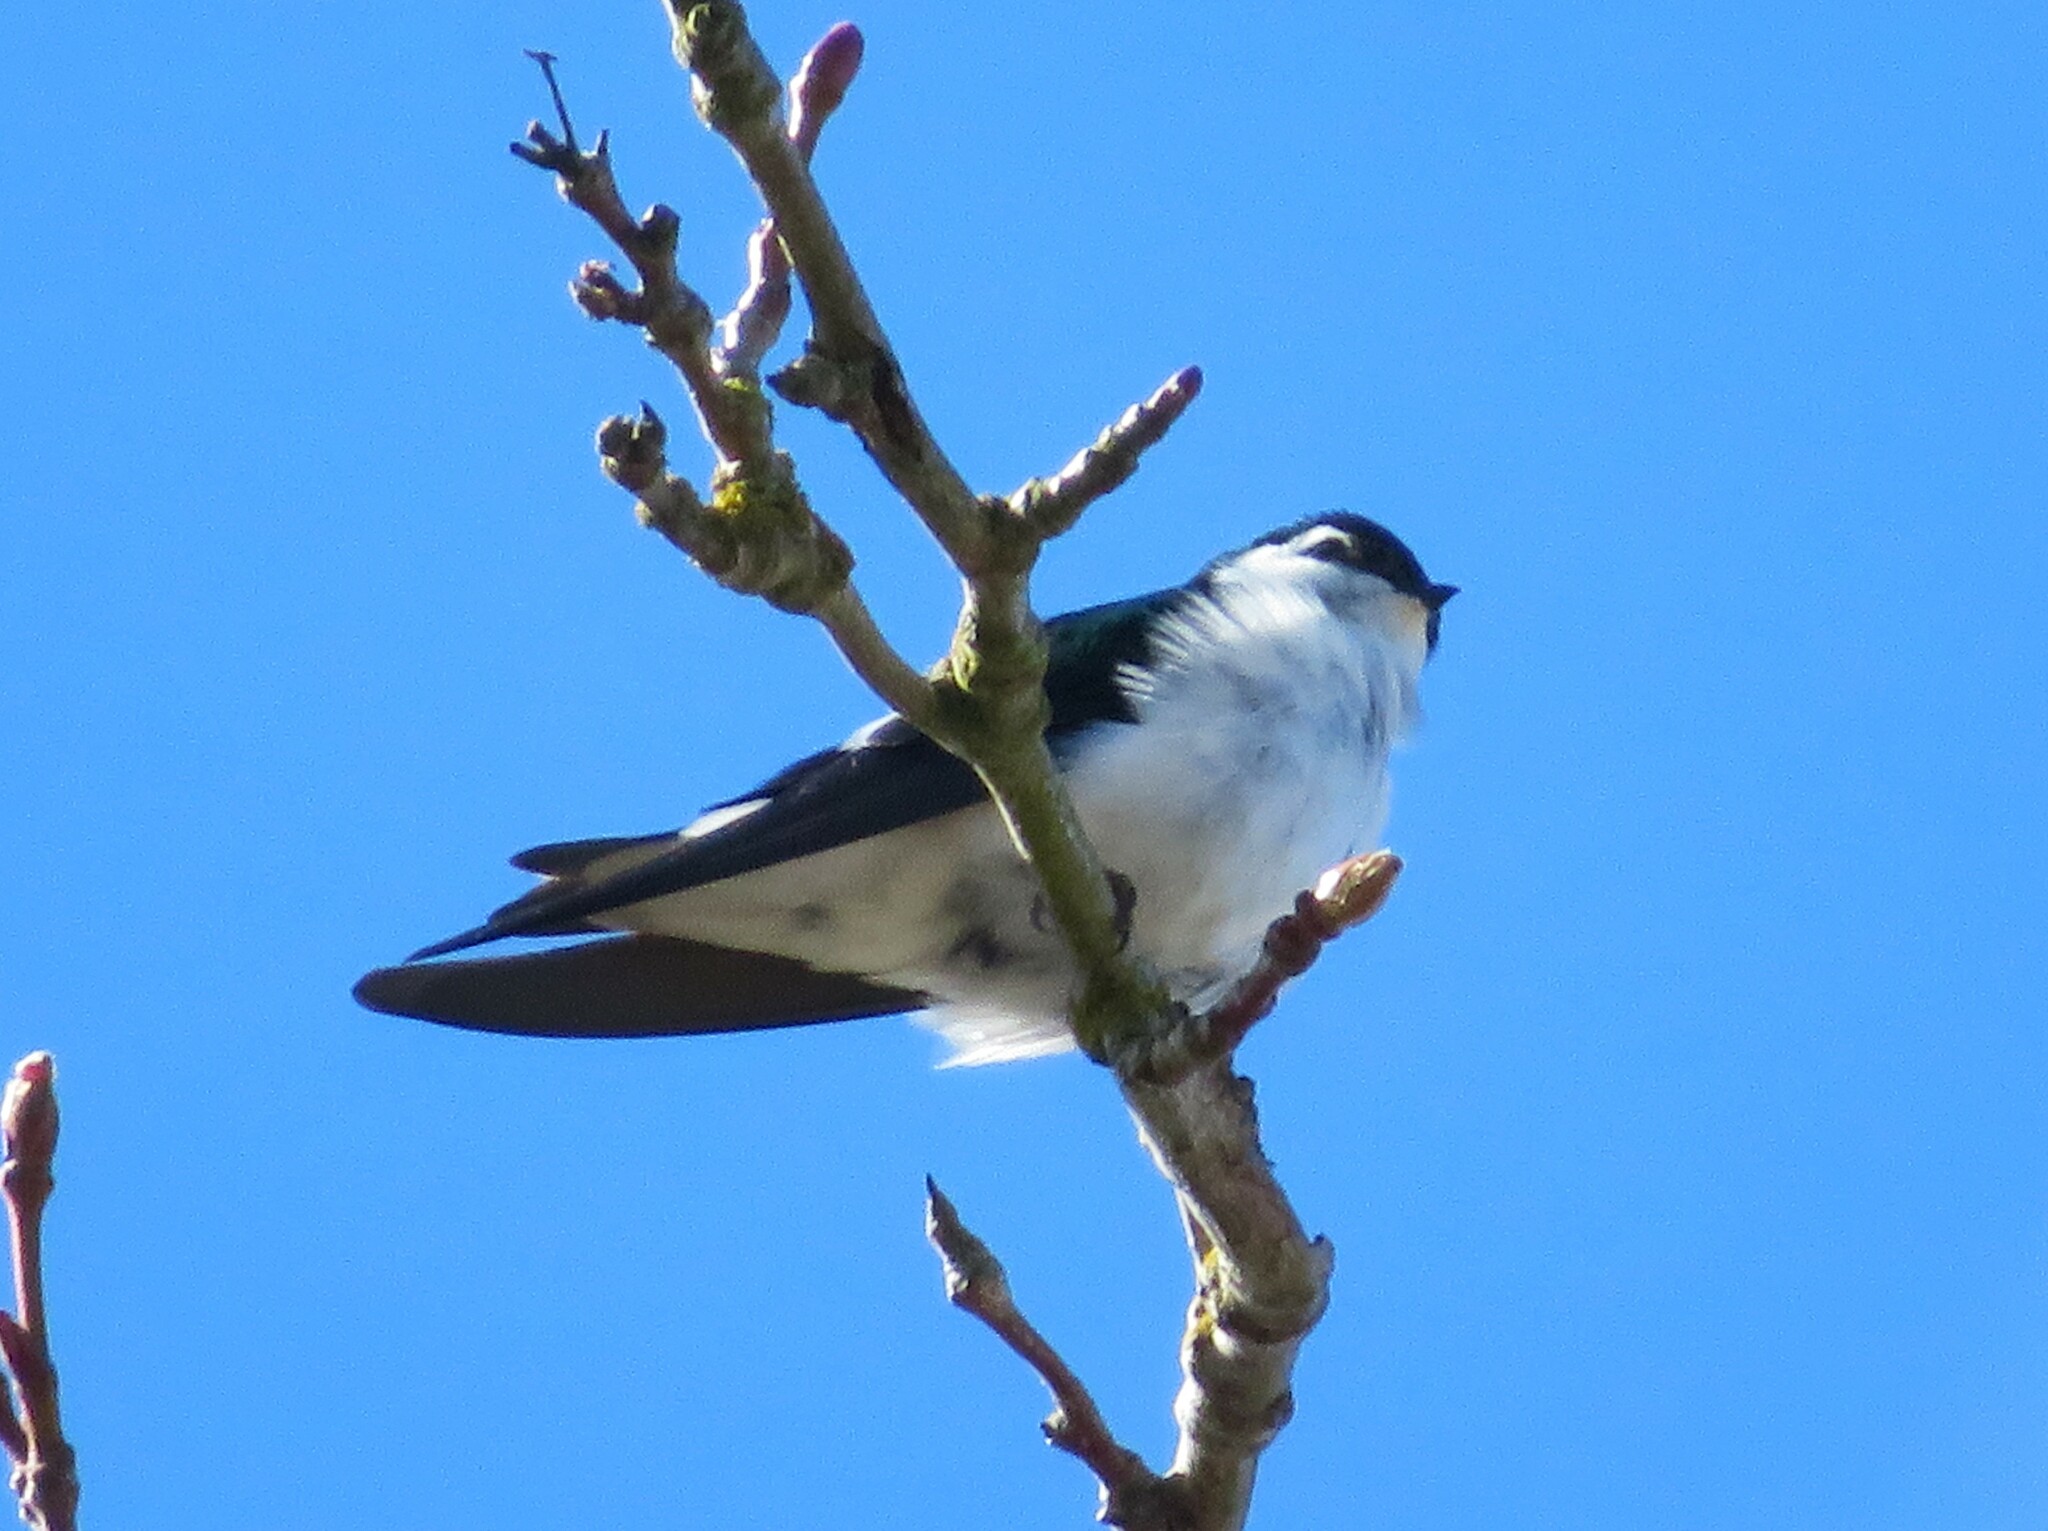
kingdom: Animalia
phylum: Chordata
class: Aves
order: Passeriformes
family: Hirundinidae
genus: Tachycineta
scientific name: Tachycineta thalassina
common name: Violet-green swallow
